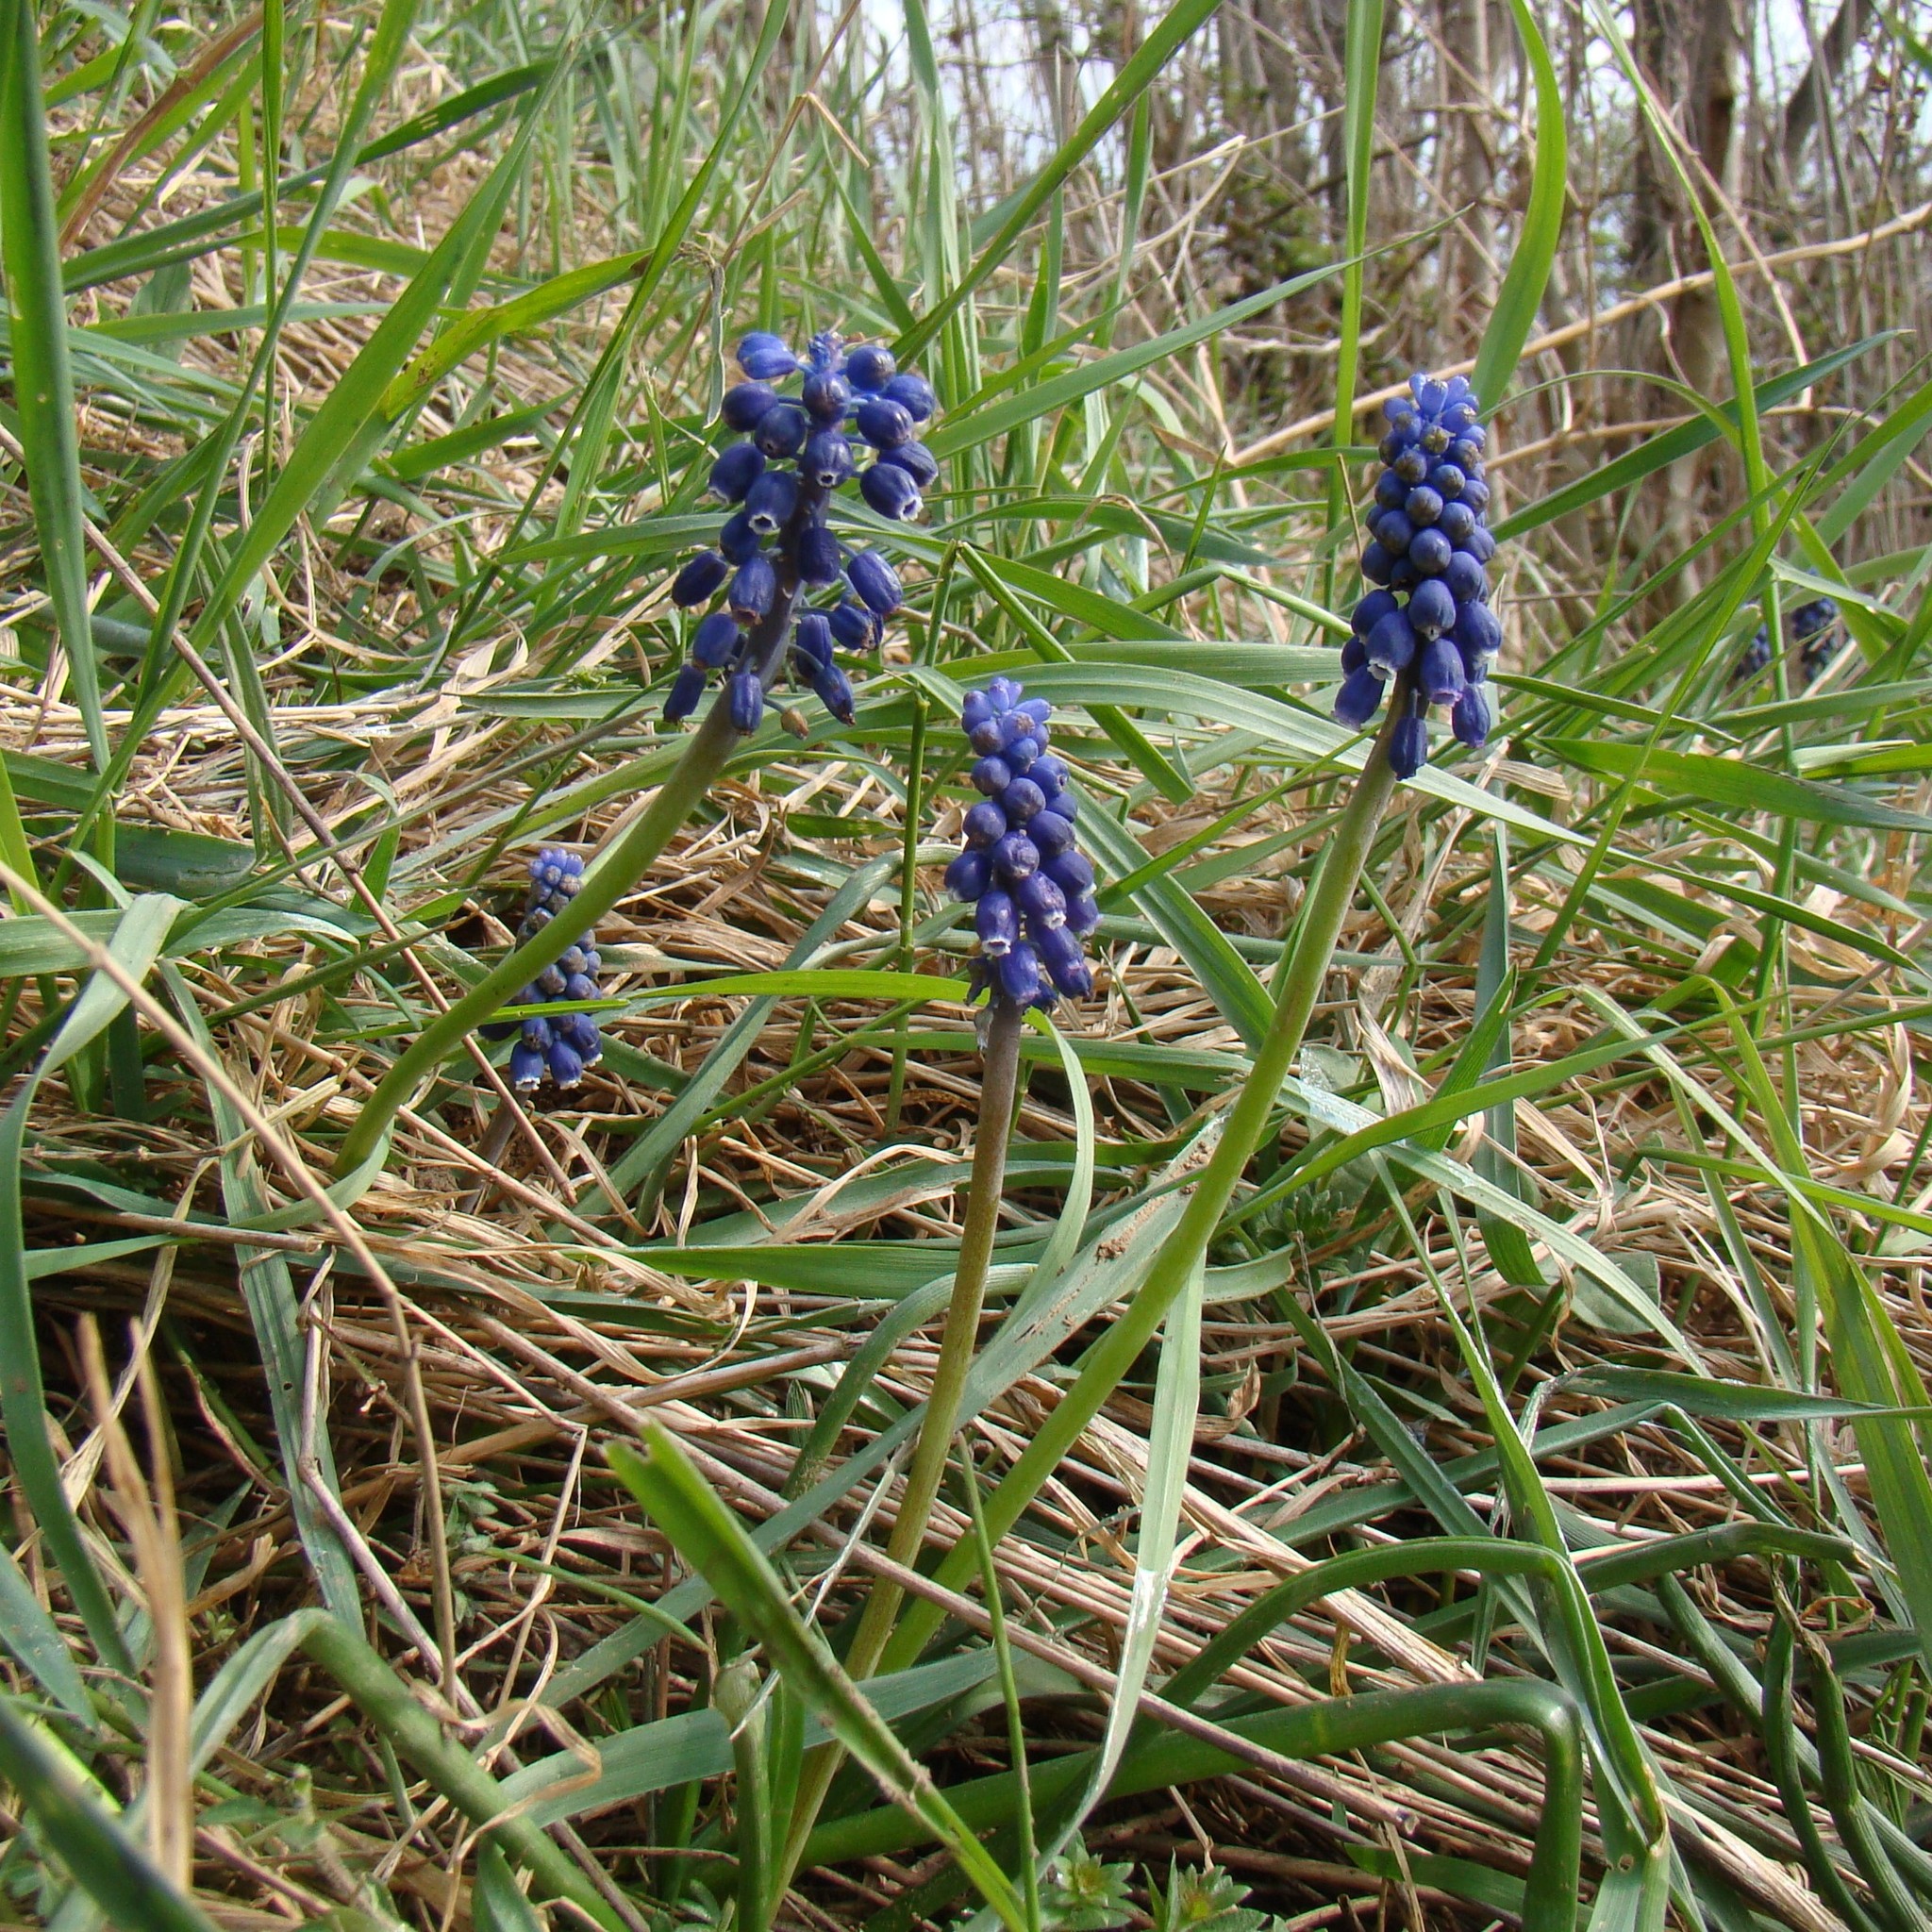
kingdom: Plantae
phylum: Tracheophyta
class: Liliopsida
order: Asparagales
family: Asparagaceae
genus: Muscari
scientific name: Muscari neglectum
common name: Grape-hyacinth
